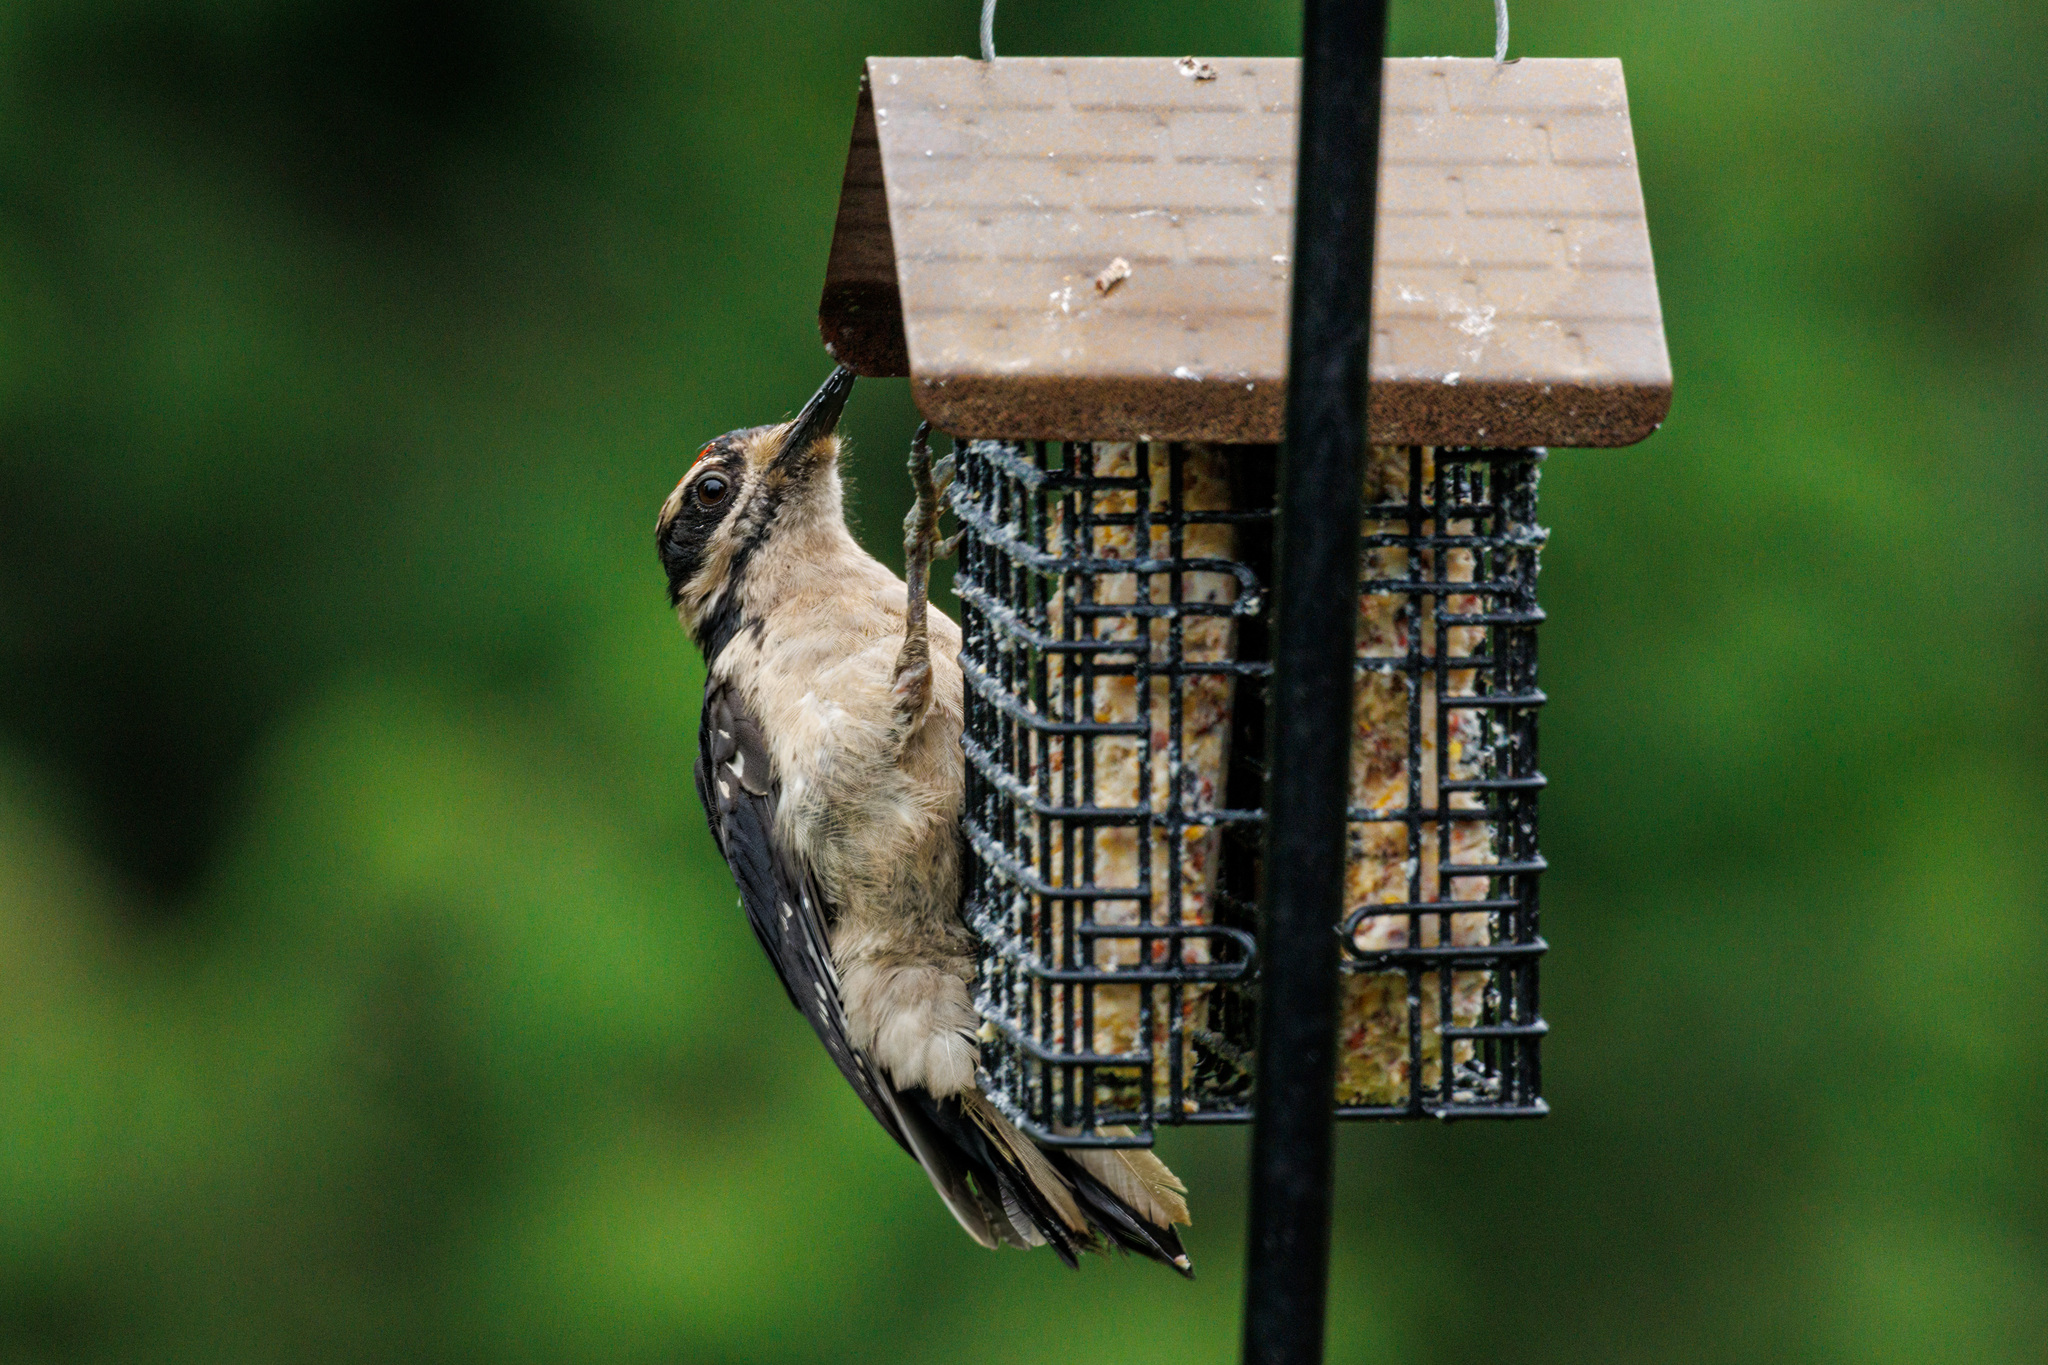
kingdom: Animalia
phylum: Chordata
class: Aves
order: Piciformes
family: Picidae
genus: Leuconotopicus
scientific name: Leuconotopicus villosus
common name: Hairy woodpecker
